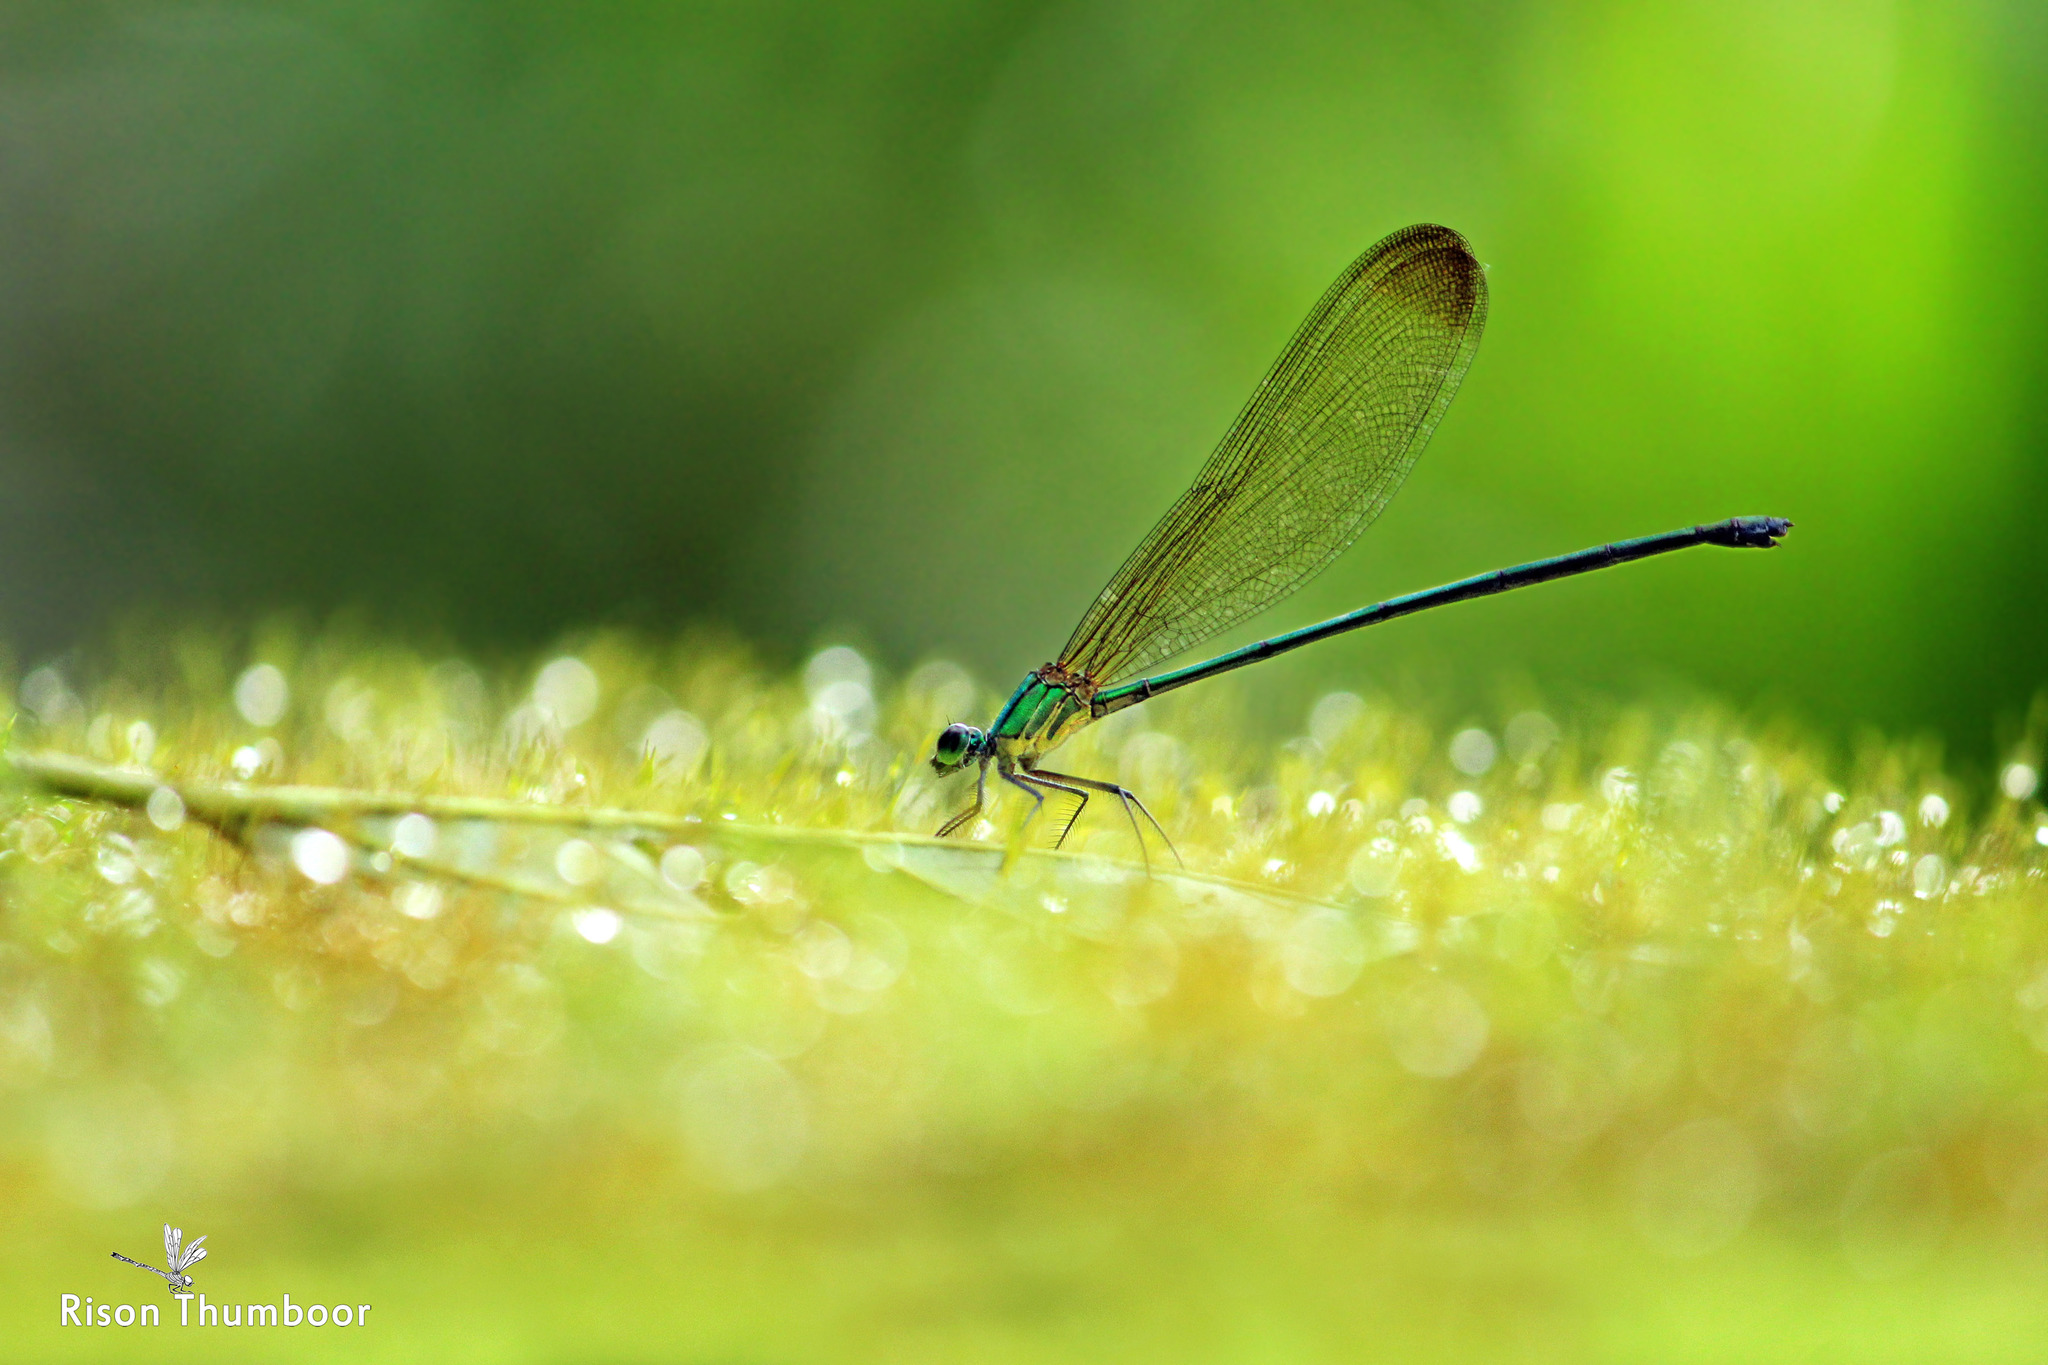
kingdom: Animalia
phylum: Arthropoda
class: Insecta
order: Odonata
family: Calopterygidae
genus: Vestalis
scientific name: Vestalis apicalis
